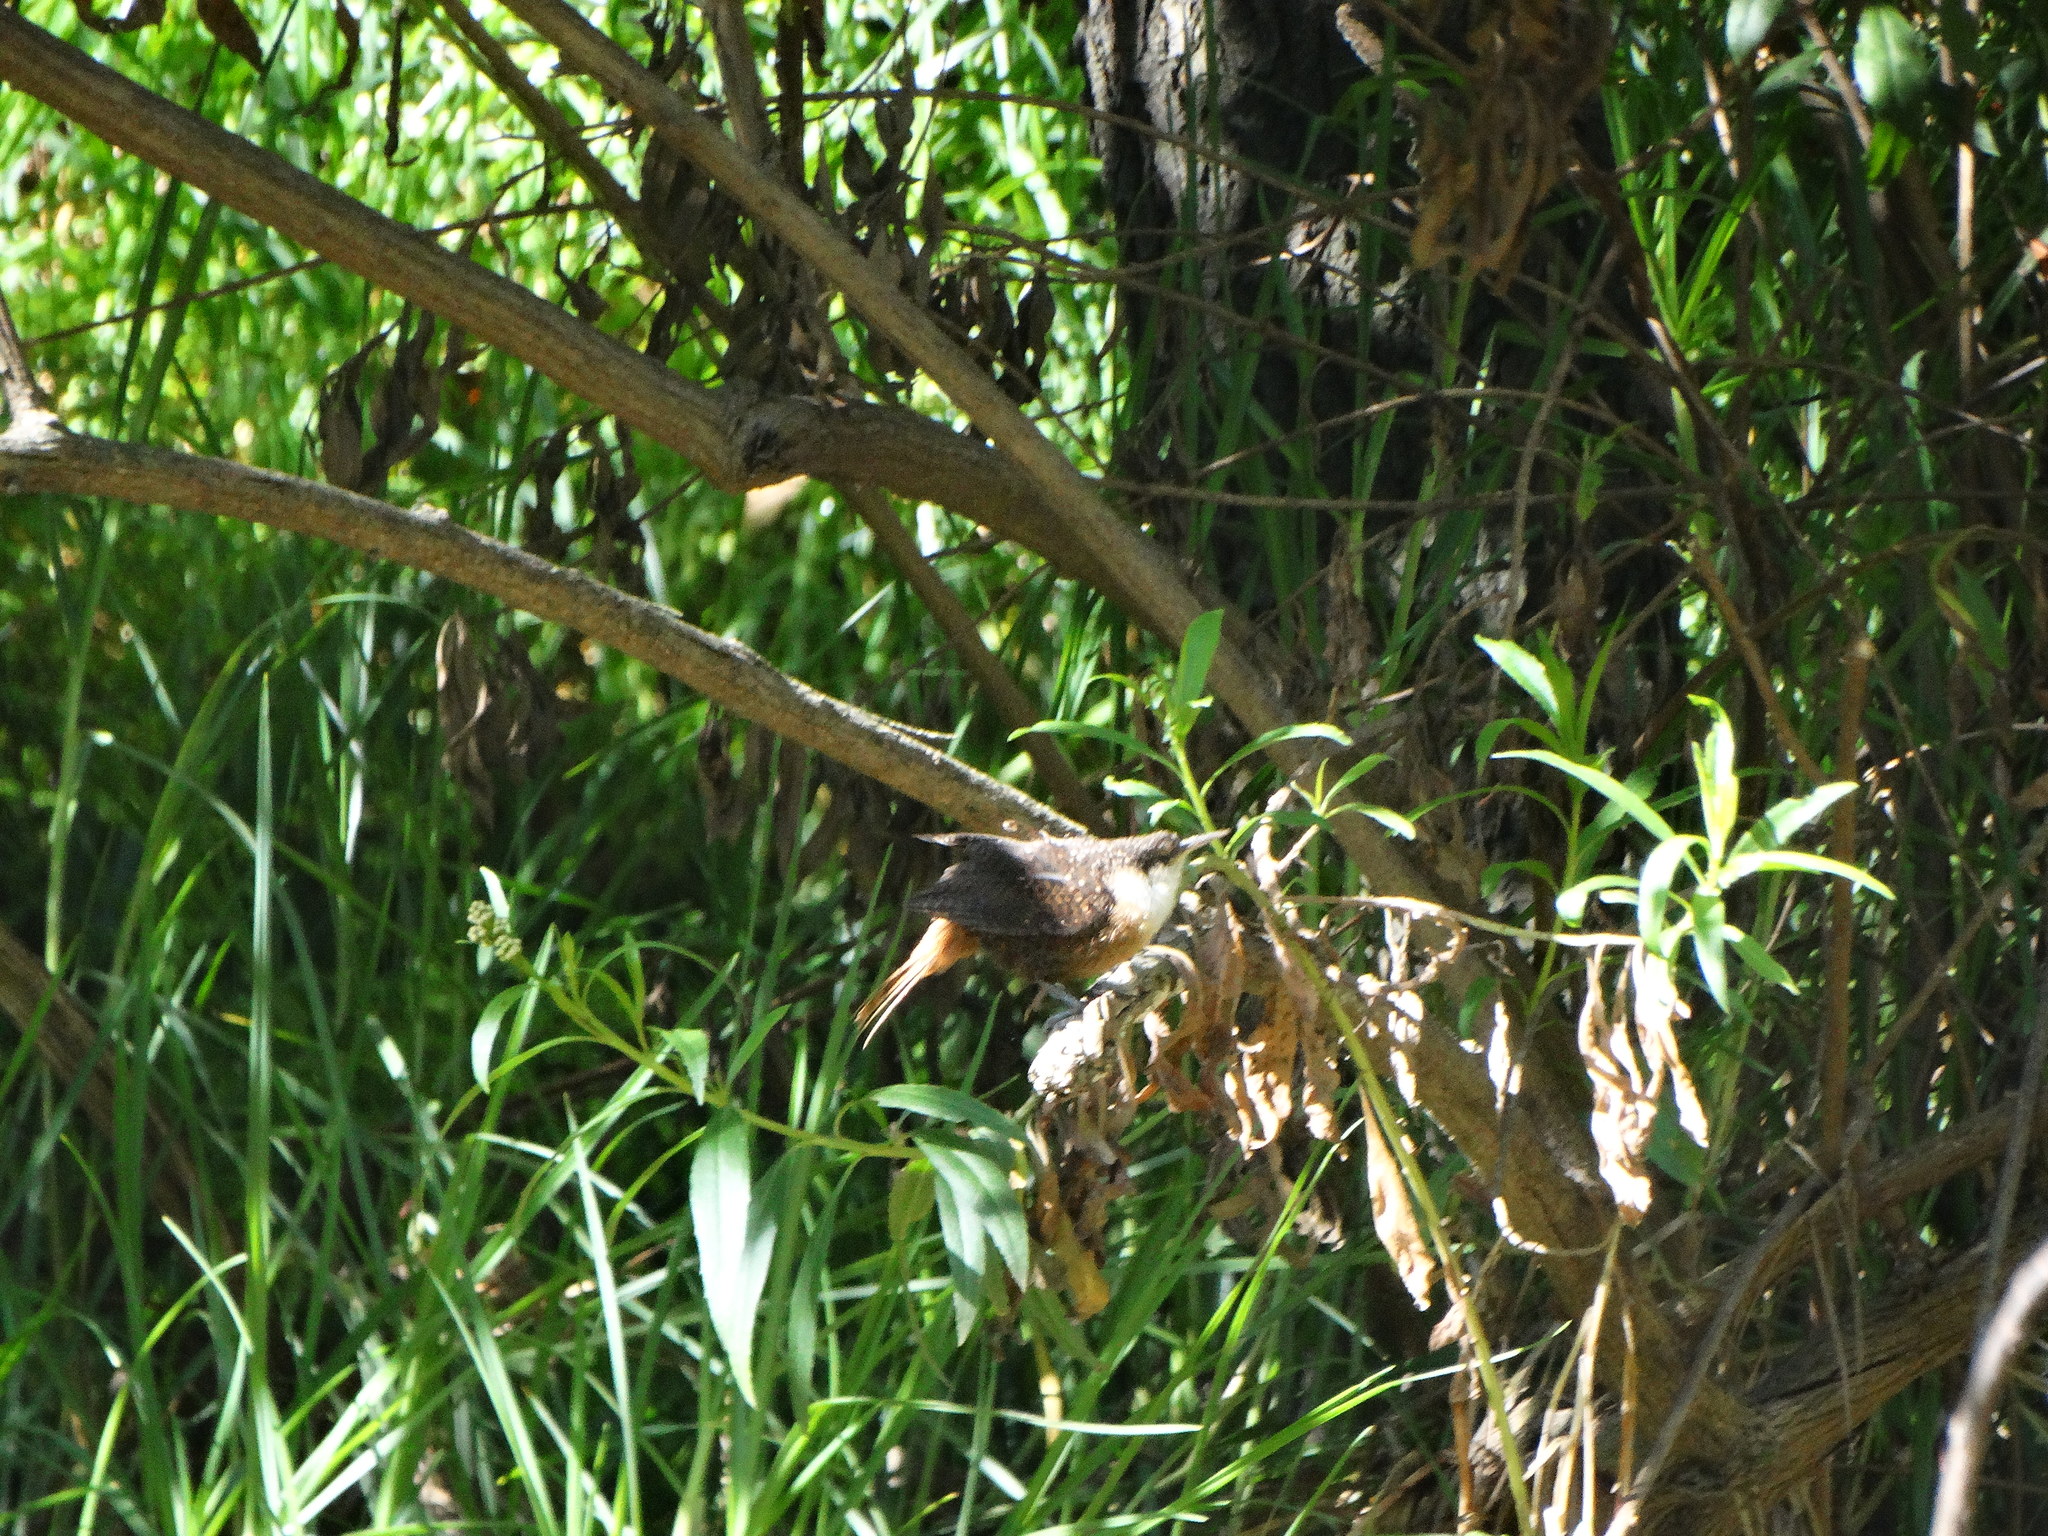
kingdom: Animalia
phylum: Chordata
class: Aves
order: Passeriformes
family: Troglodytidae
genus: Catherpes
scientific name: Catherpes mexicanus
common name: Canyon wren
